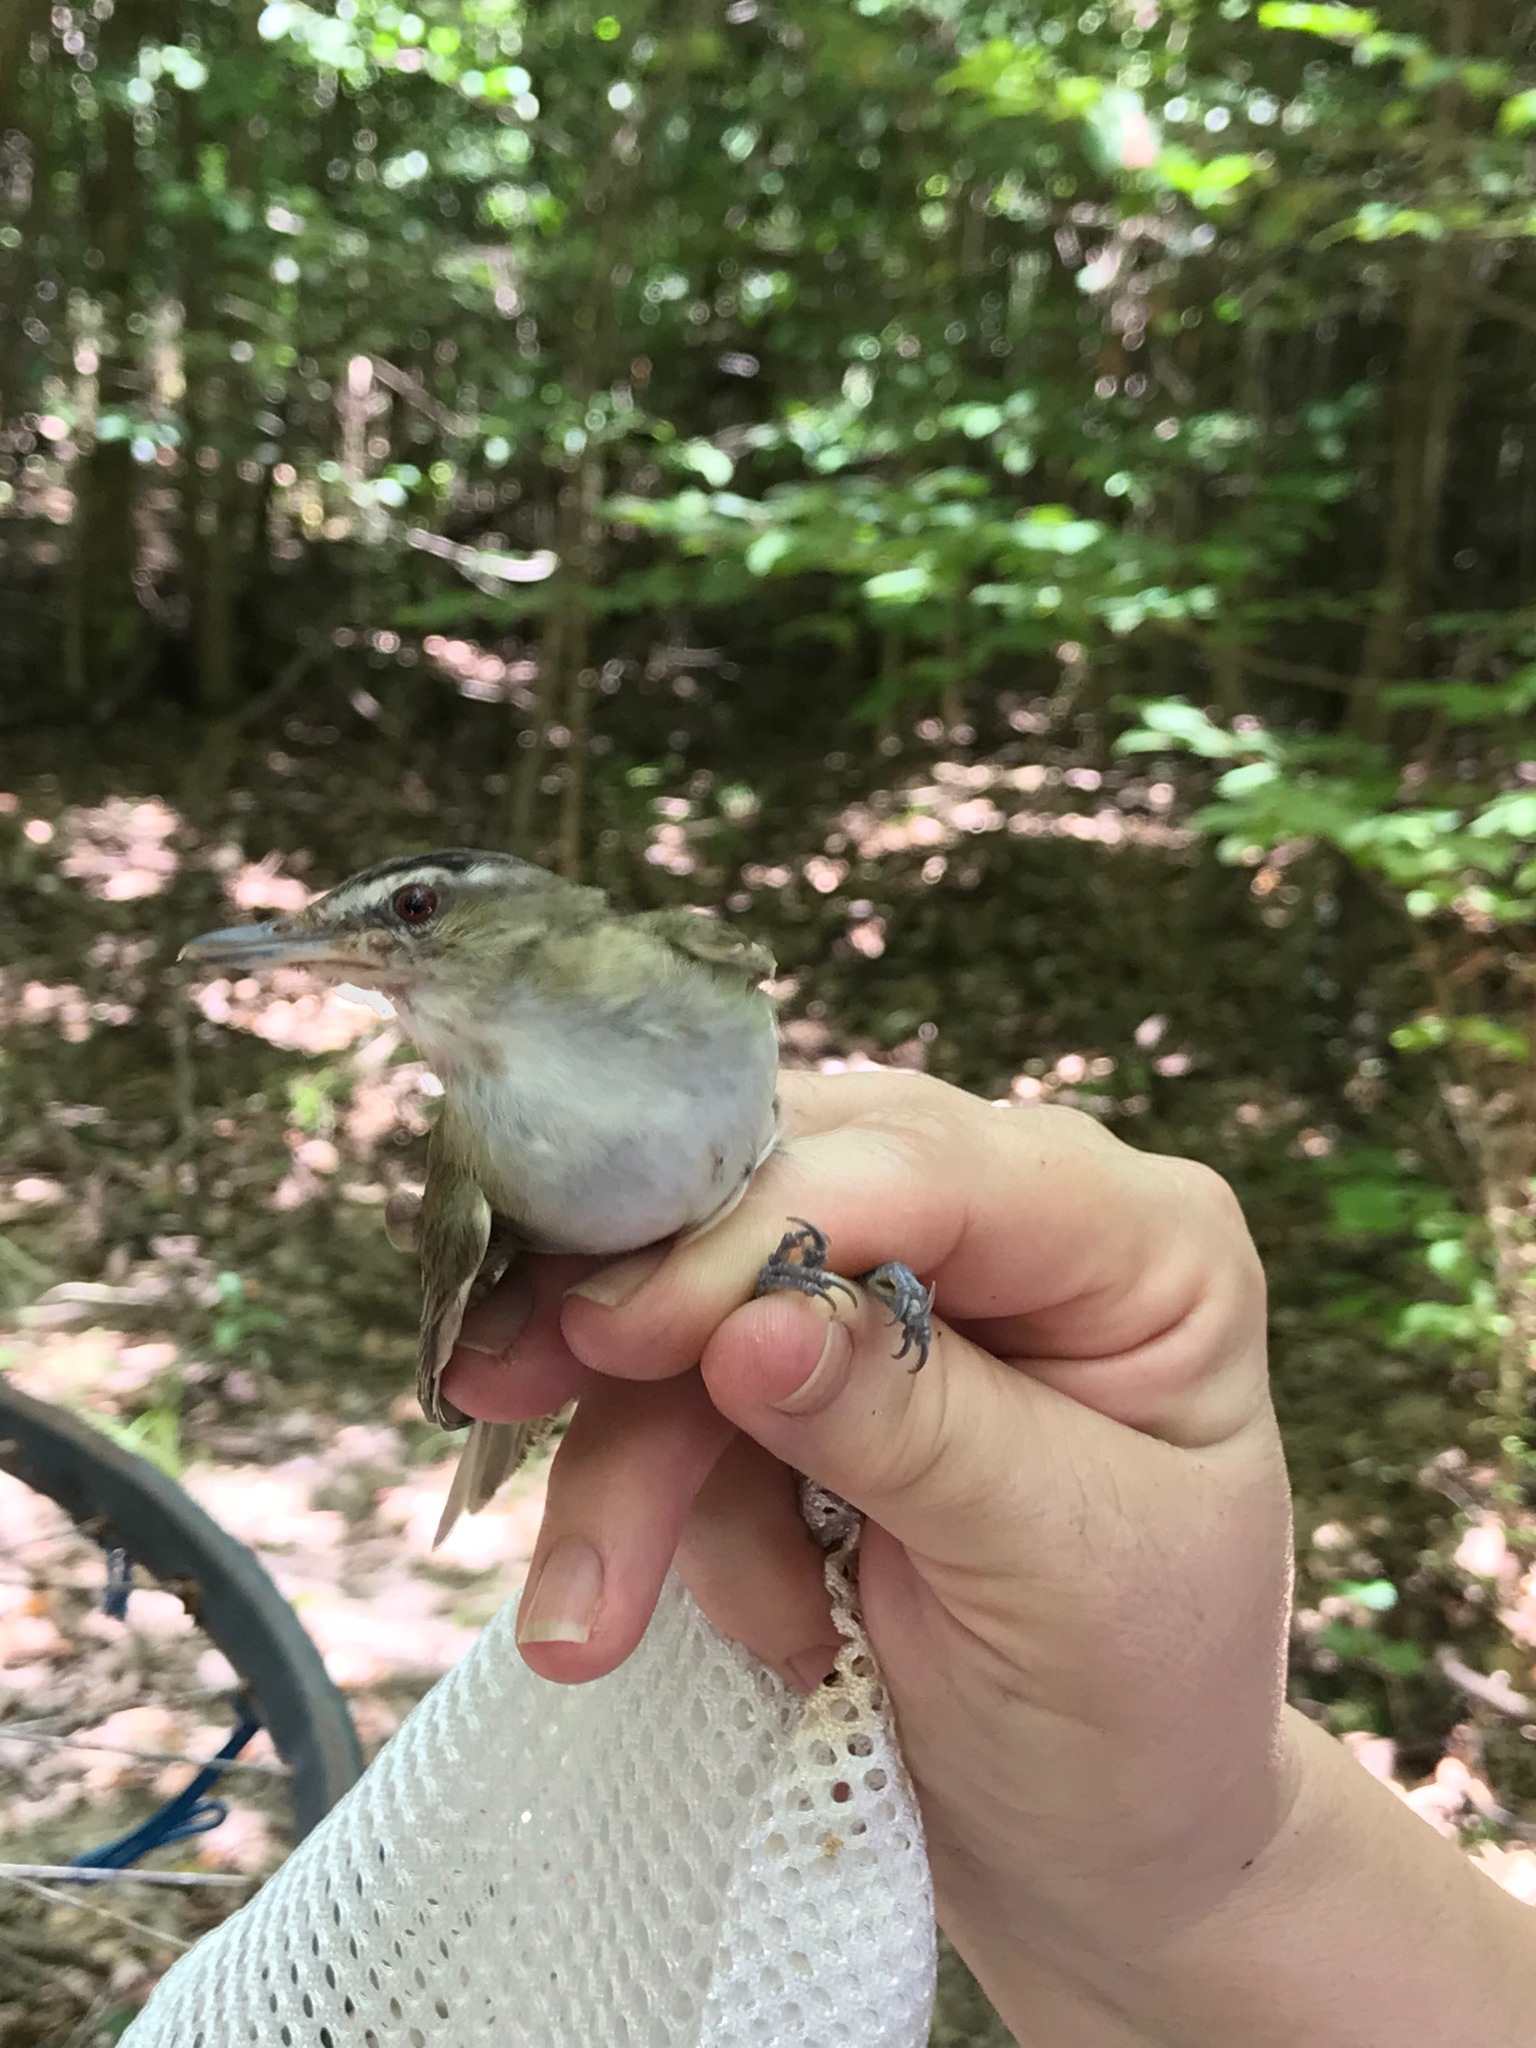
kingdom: Animalia
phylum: Chordata
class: Aves
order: Passeriformes
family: Vireonidae
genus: Vireo
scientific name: Vireo olivaceus
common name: Red-eyed vireo
